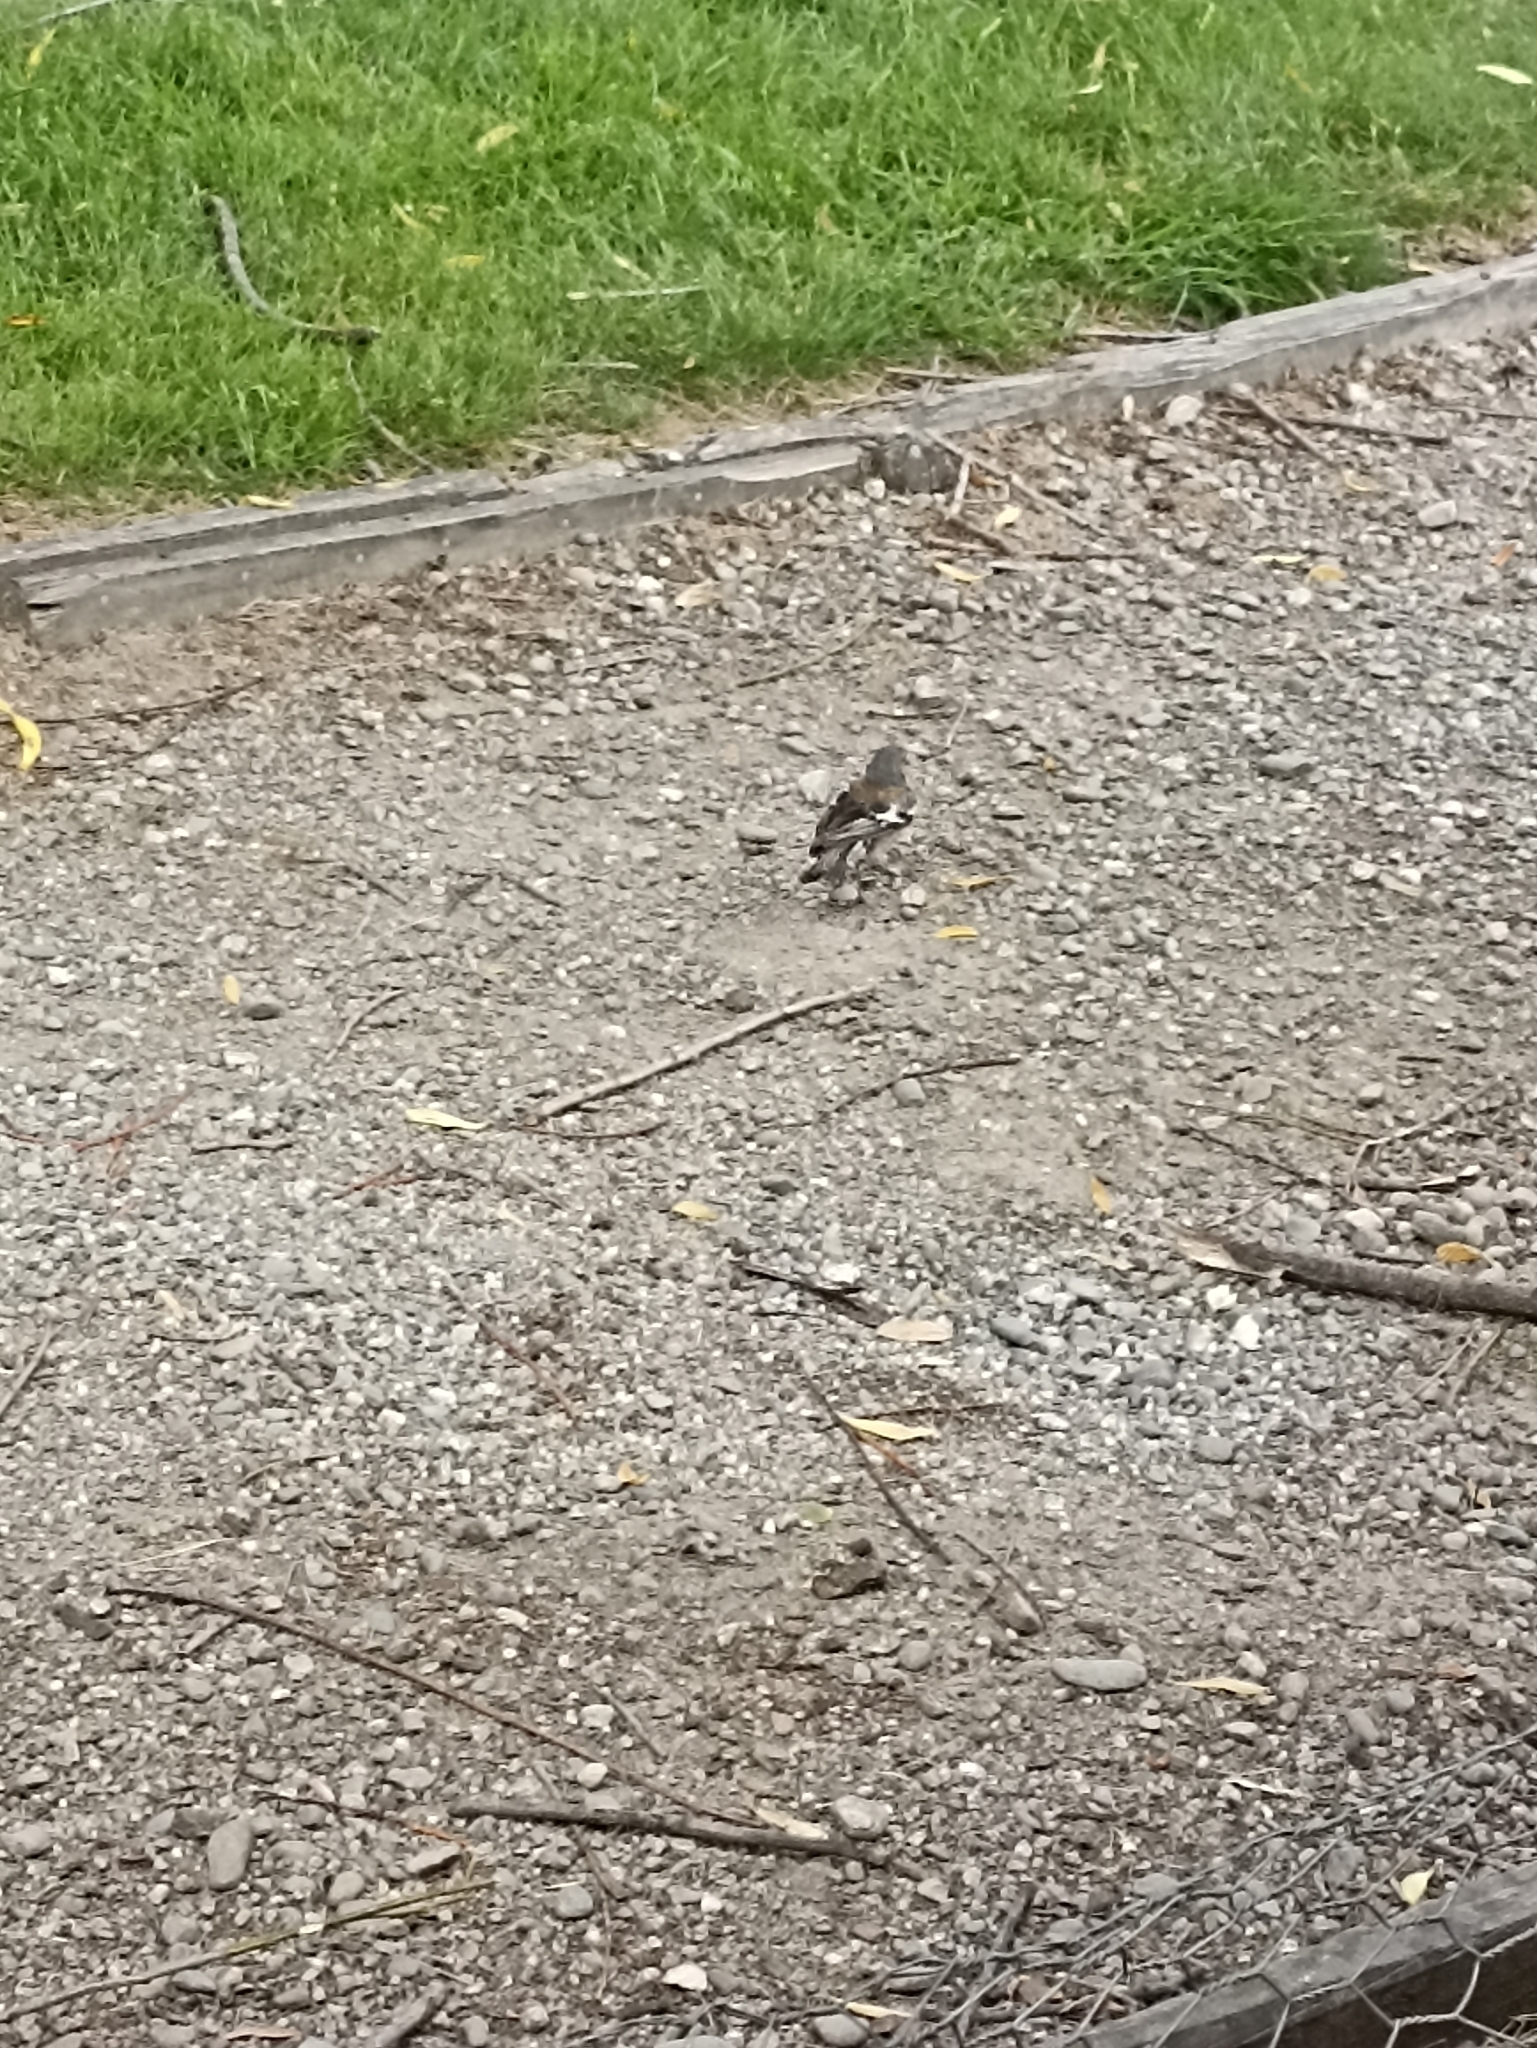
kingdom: Animalia
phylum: Chordata
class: Aves
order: Passeriformes
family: Fringillidae
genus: Fringilla
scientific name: Fringilla coelebs
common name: Common chaffinch
